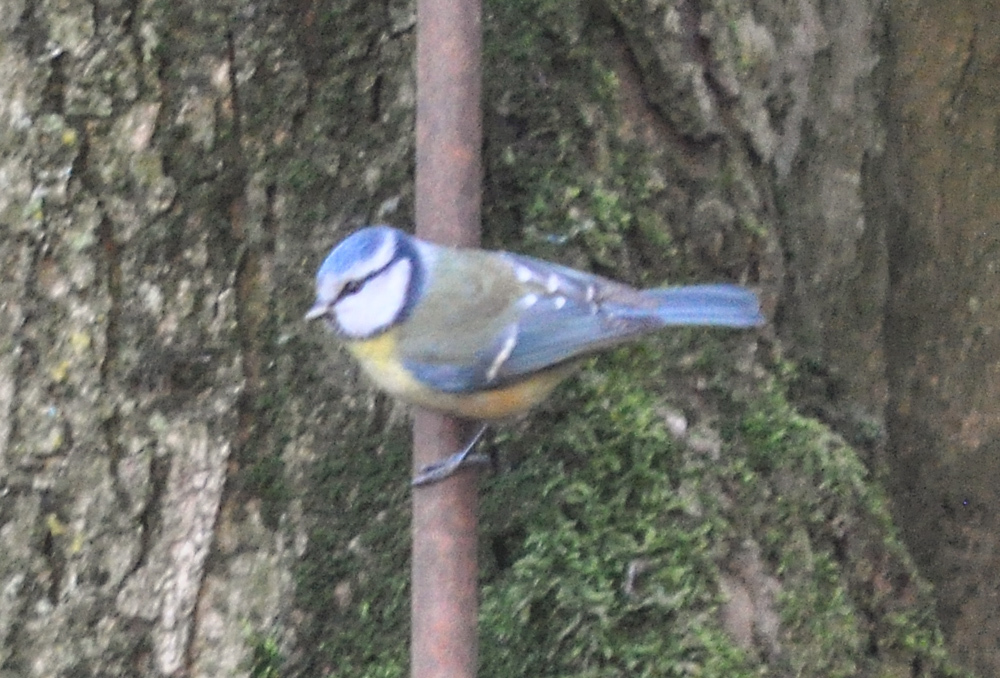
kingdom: Animalia
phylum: Chordata
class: Aves
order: Passeriformes
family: Paridae
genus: Cyanistes
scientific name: Cyanistes caeruleus
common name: Eurasian blue tit
